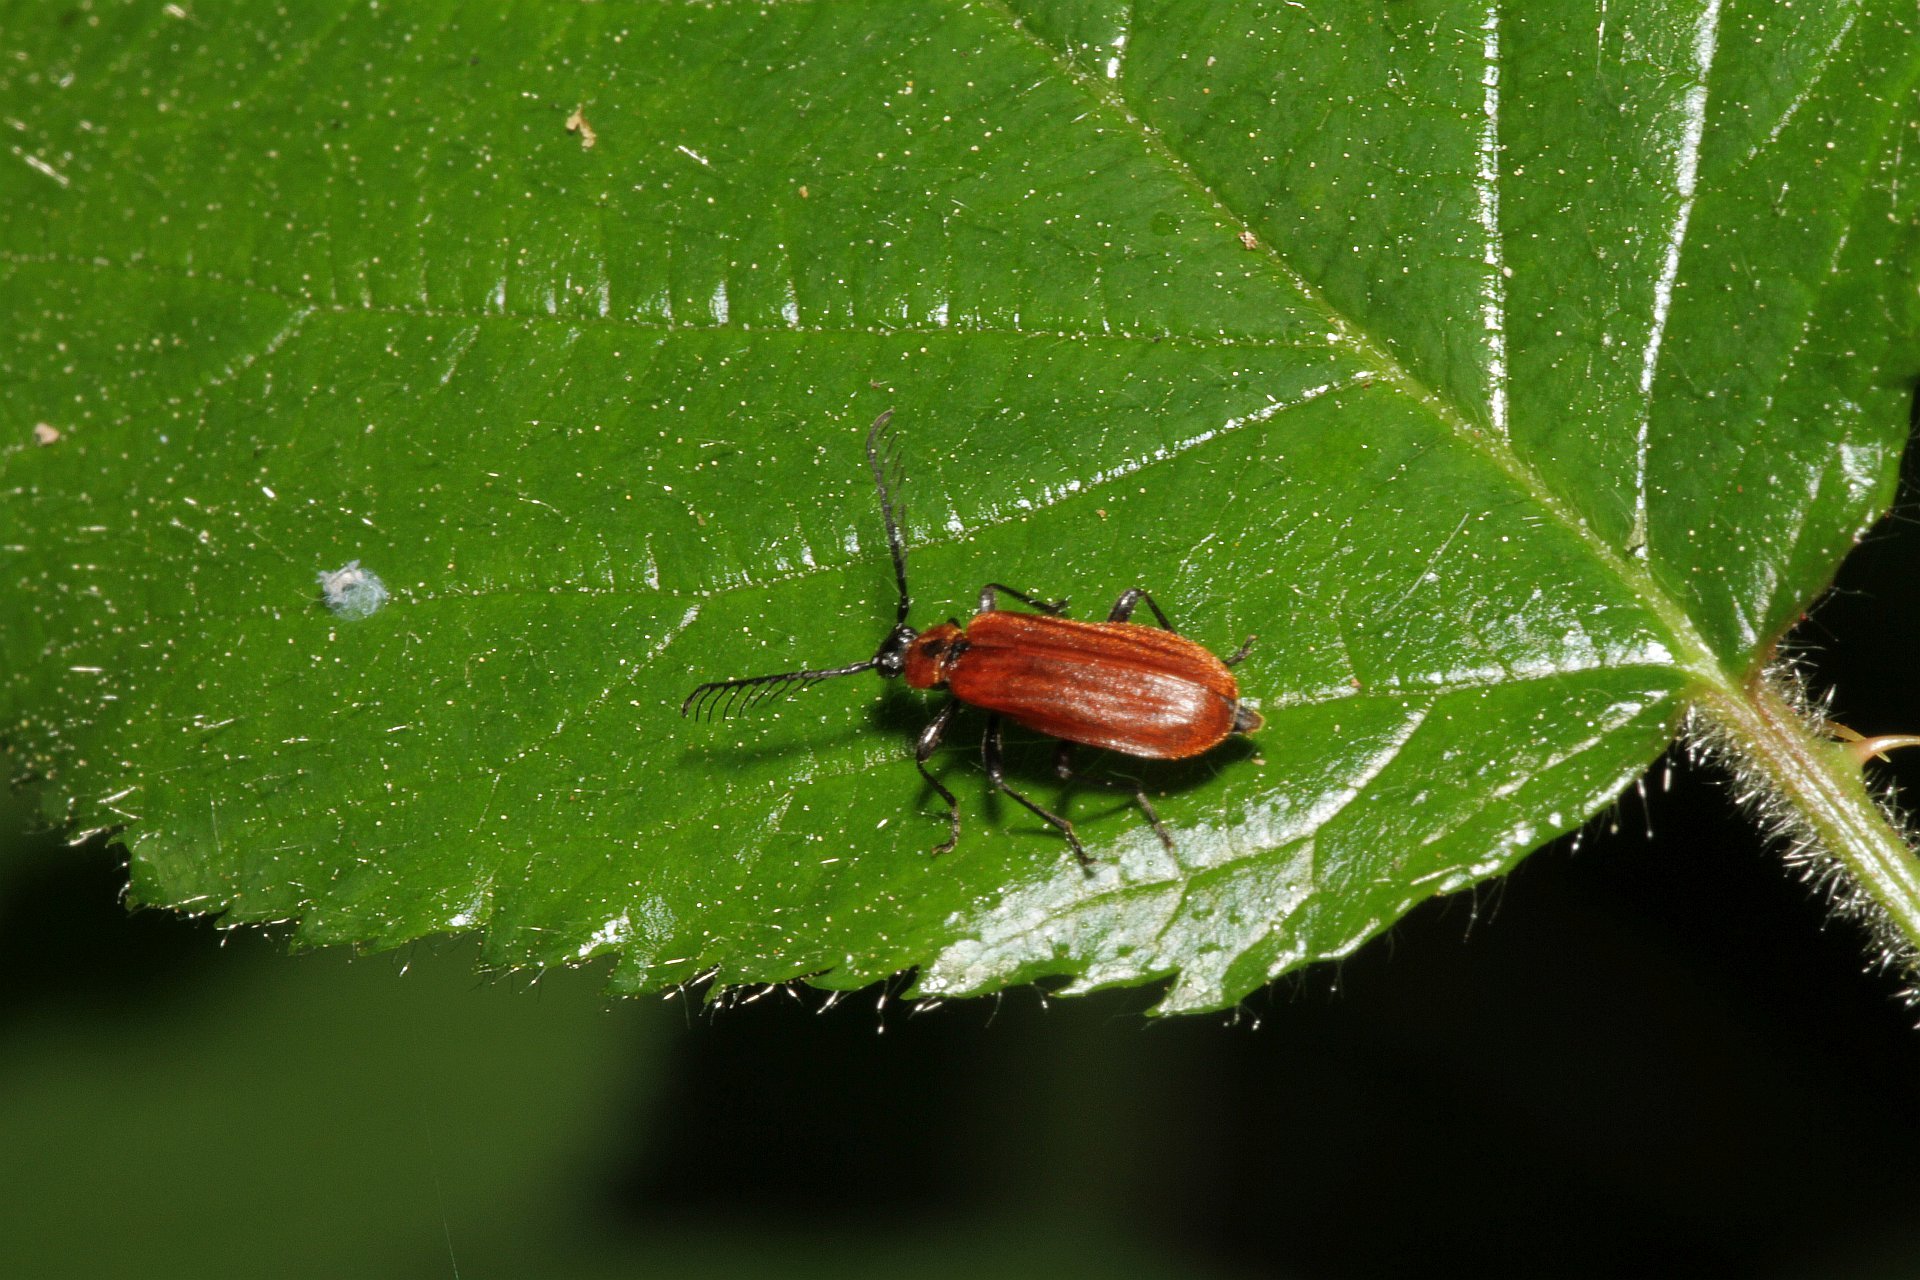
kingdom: Animalia
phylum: Arthropoda
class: Insecta
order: Coleoptera
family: Pyrochroidae
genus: Schizotus
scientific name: Schizotus pectinicornis
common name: Scarce cardinal beetle
